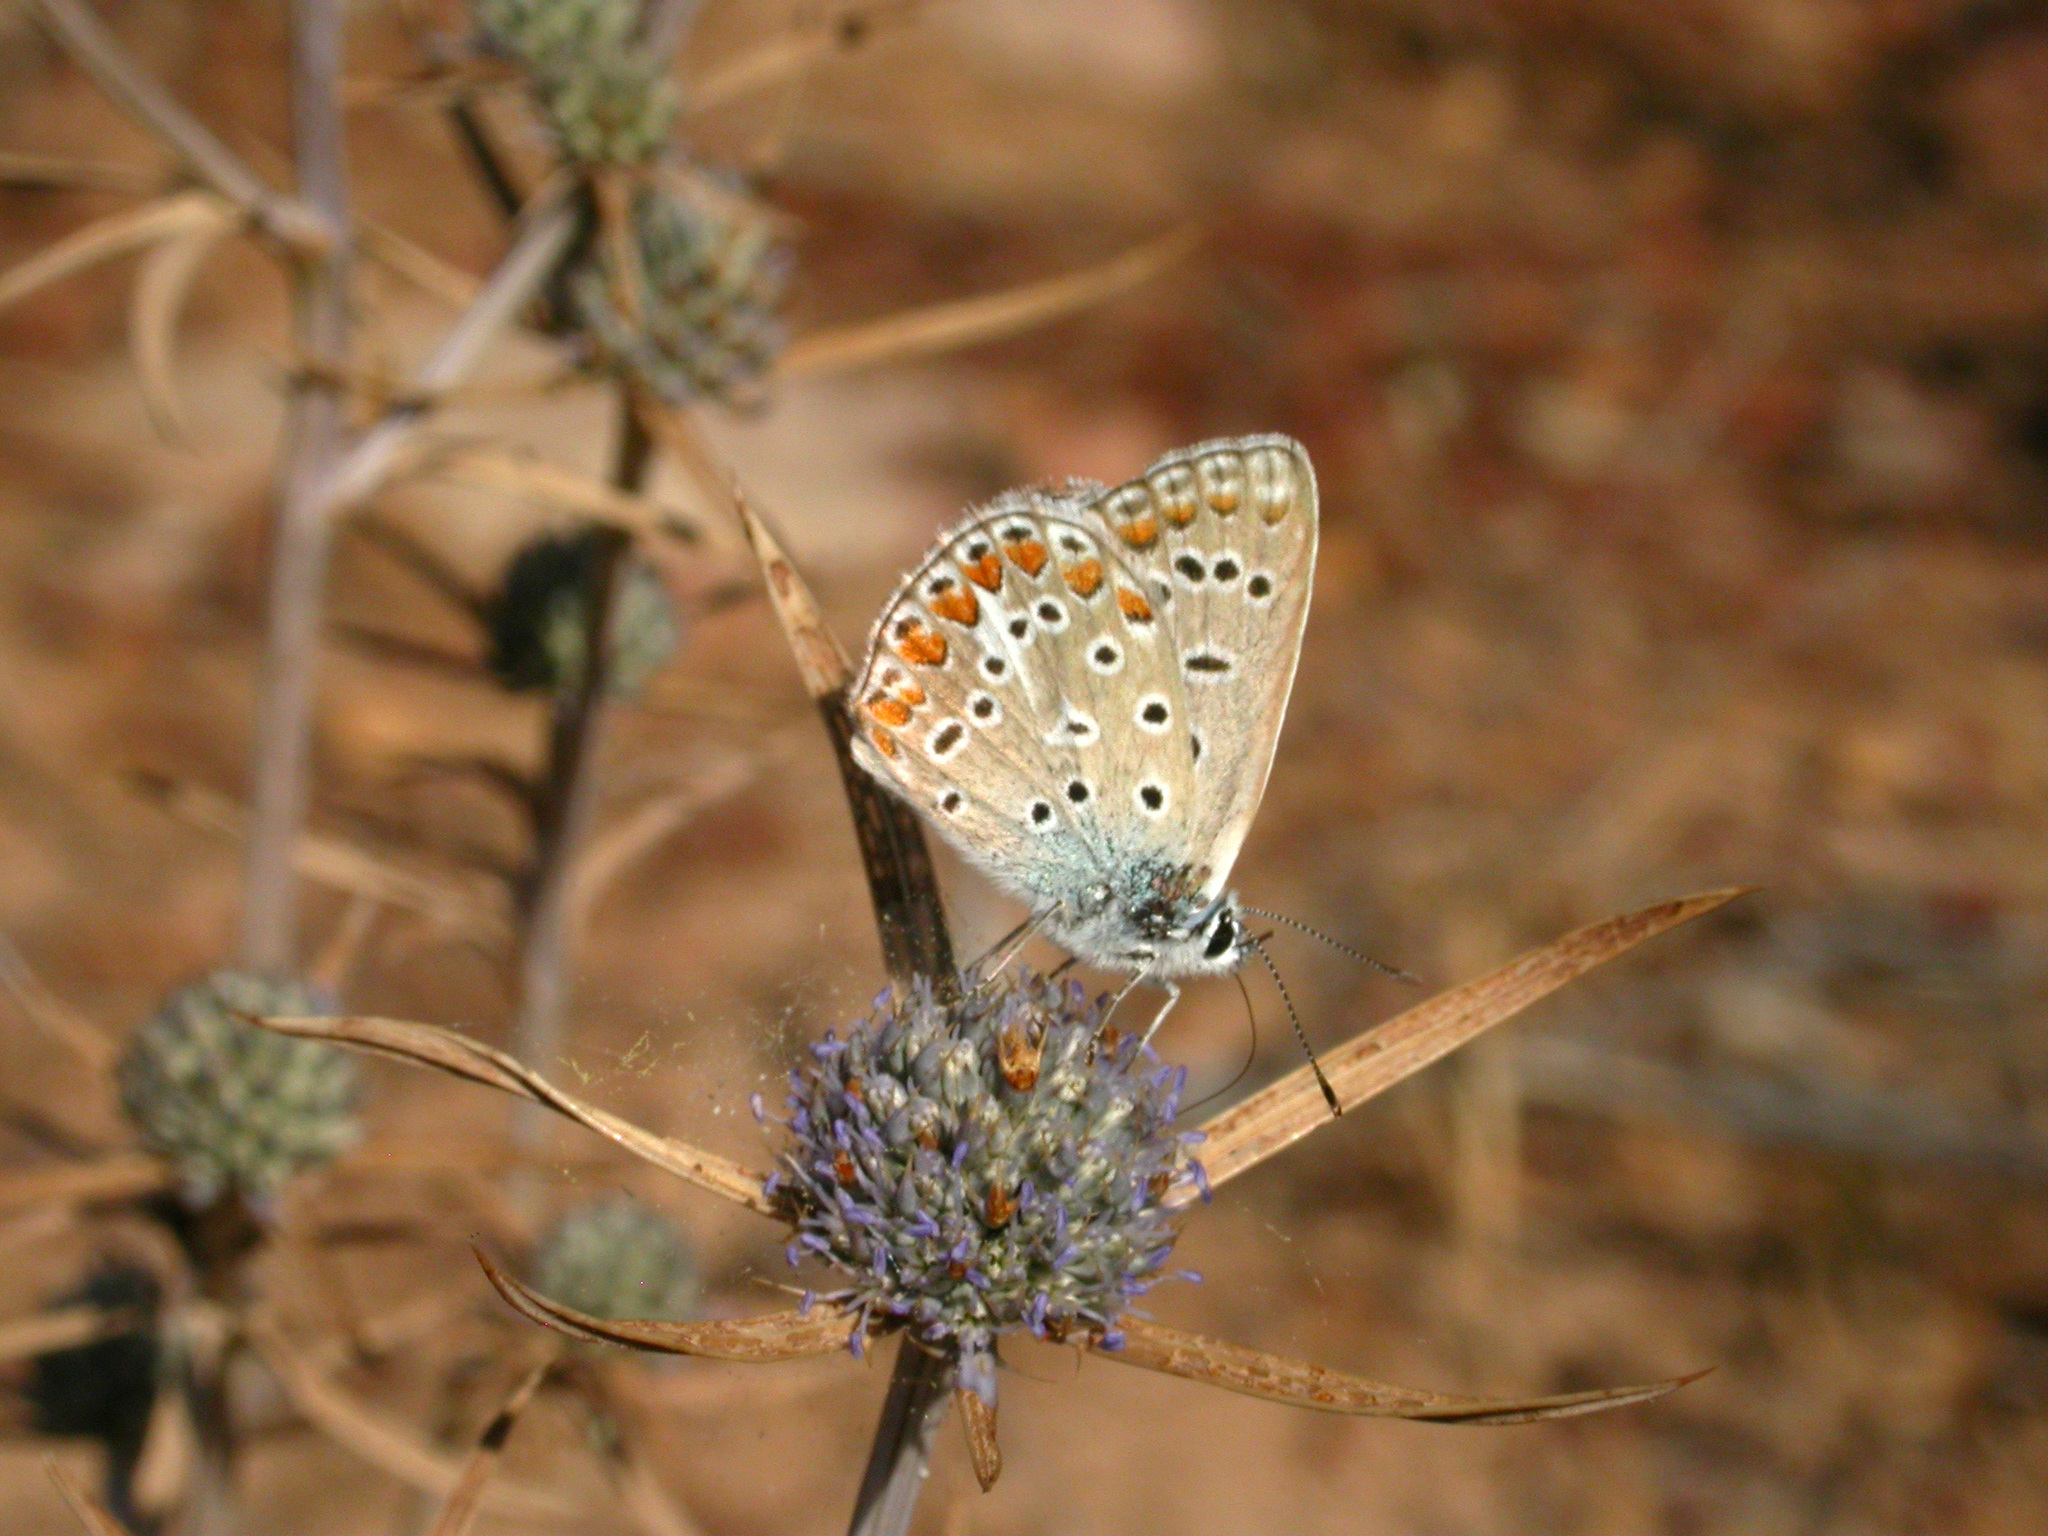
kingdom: Animalia
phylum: Arthropoda
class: Insecta
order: Lepidoptera
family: Lycaenidae
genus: Polyommatus
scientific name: Polyommatus celina
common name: Austaut's blue
